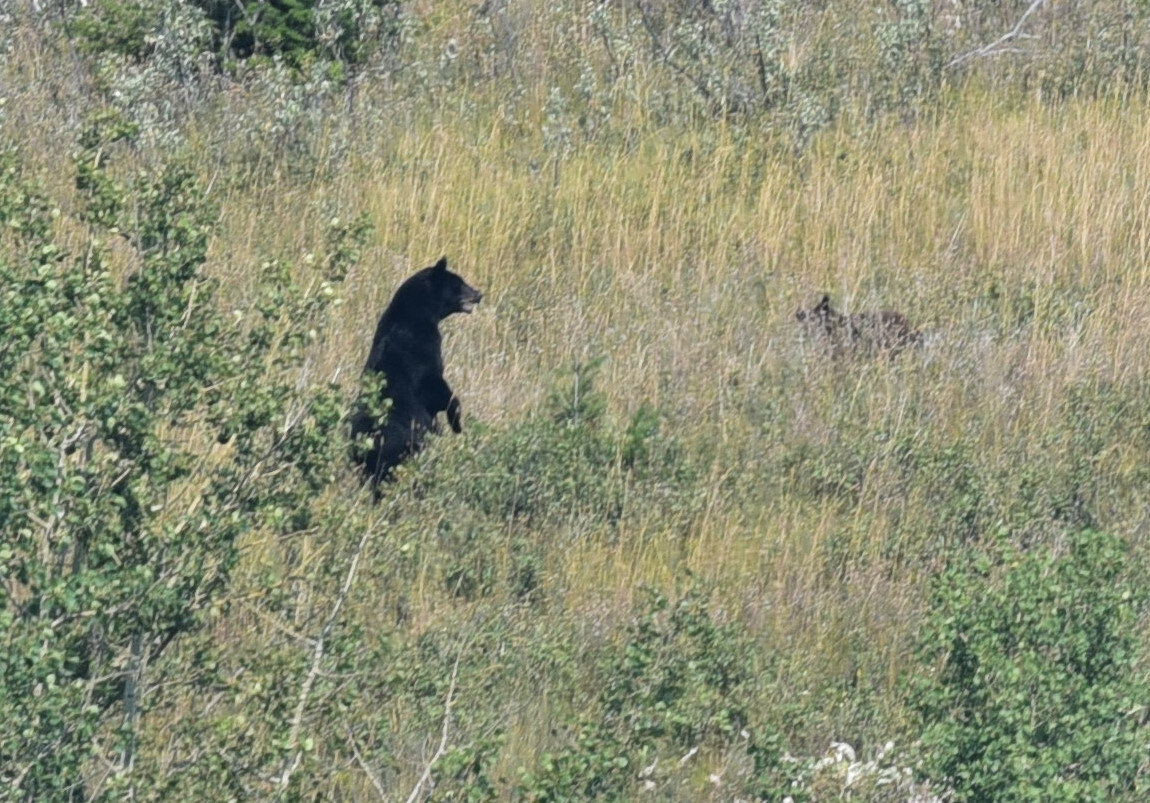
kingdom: Animalia
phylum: Chordata
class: Mammalia
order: Carnivora
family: Ursidae
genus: Ursus
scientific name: Ursus americanus
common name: American black bear
